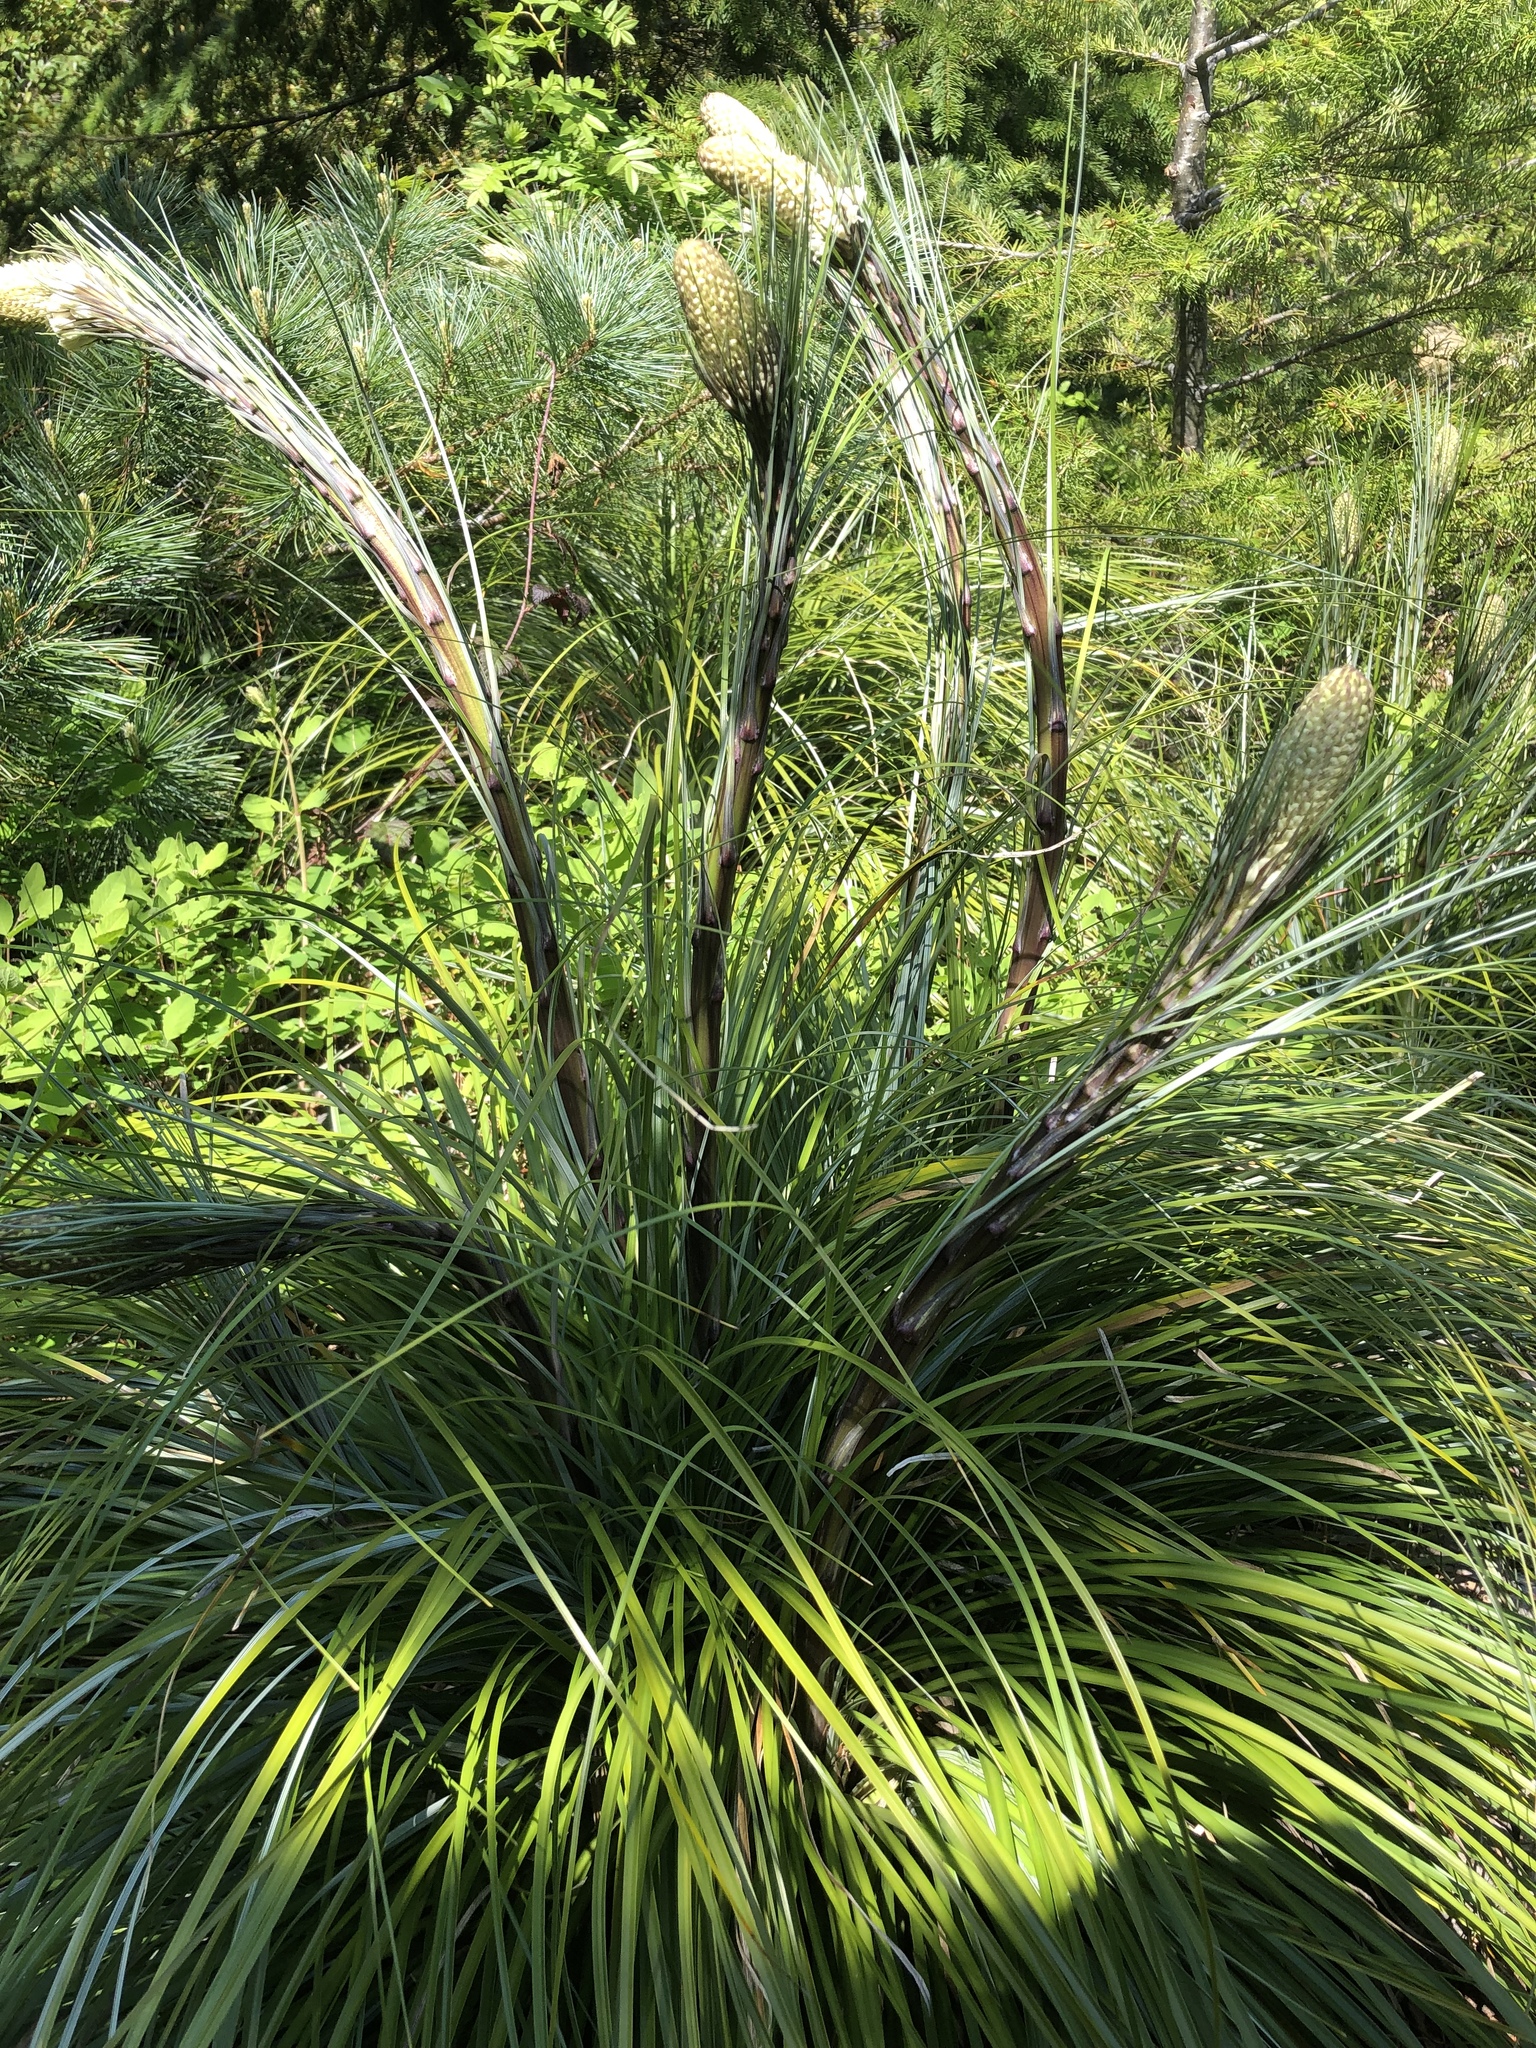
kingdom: Plantae
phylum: Tracheophyta
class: Liliopsida
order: Liliales
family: Melanthiaceae
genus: Xerophyllum
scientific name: Xerophyllum tenax
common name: Bear-grass
